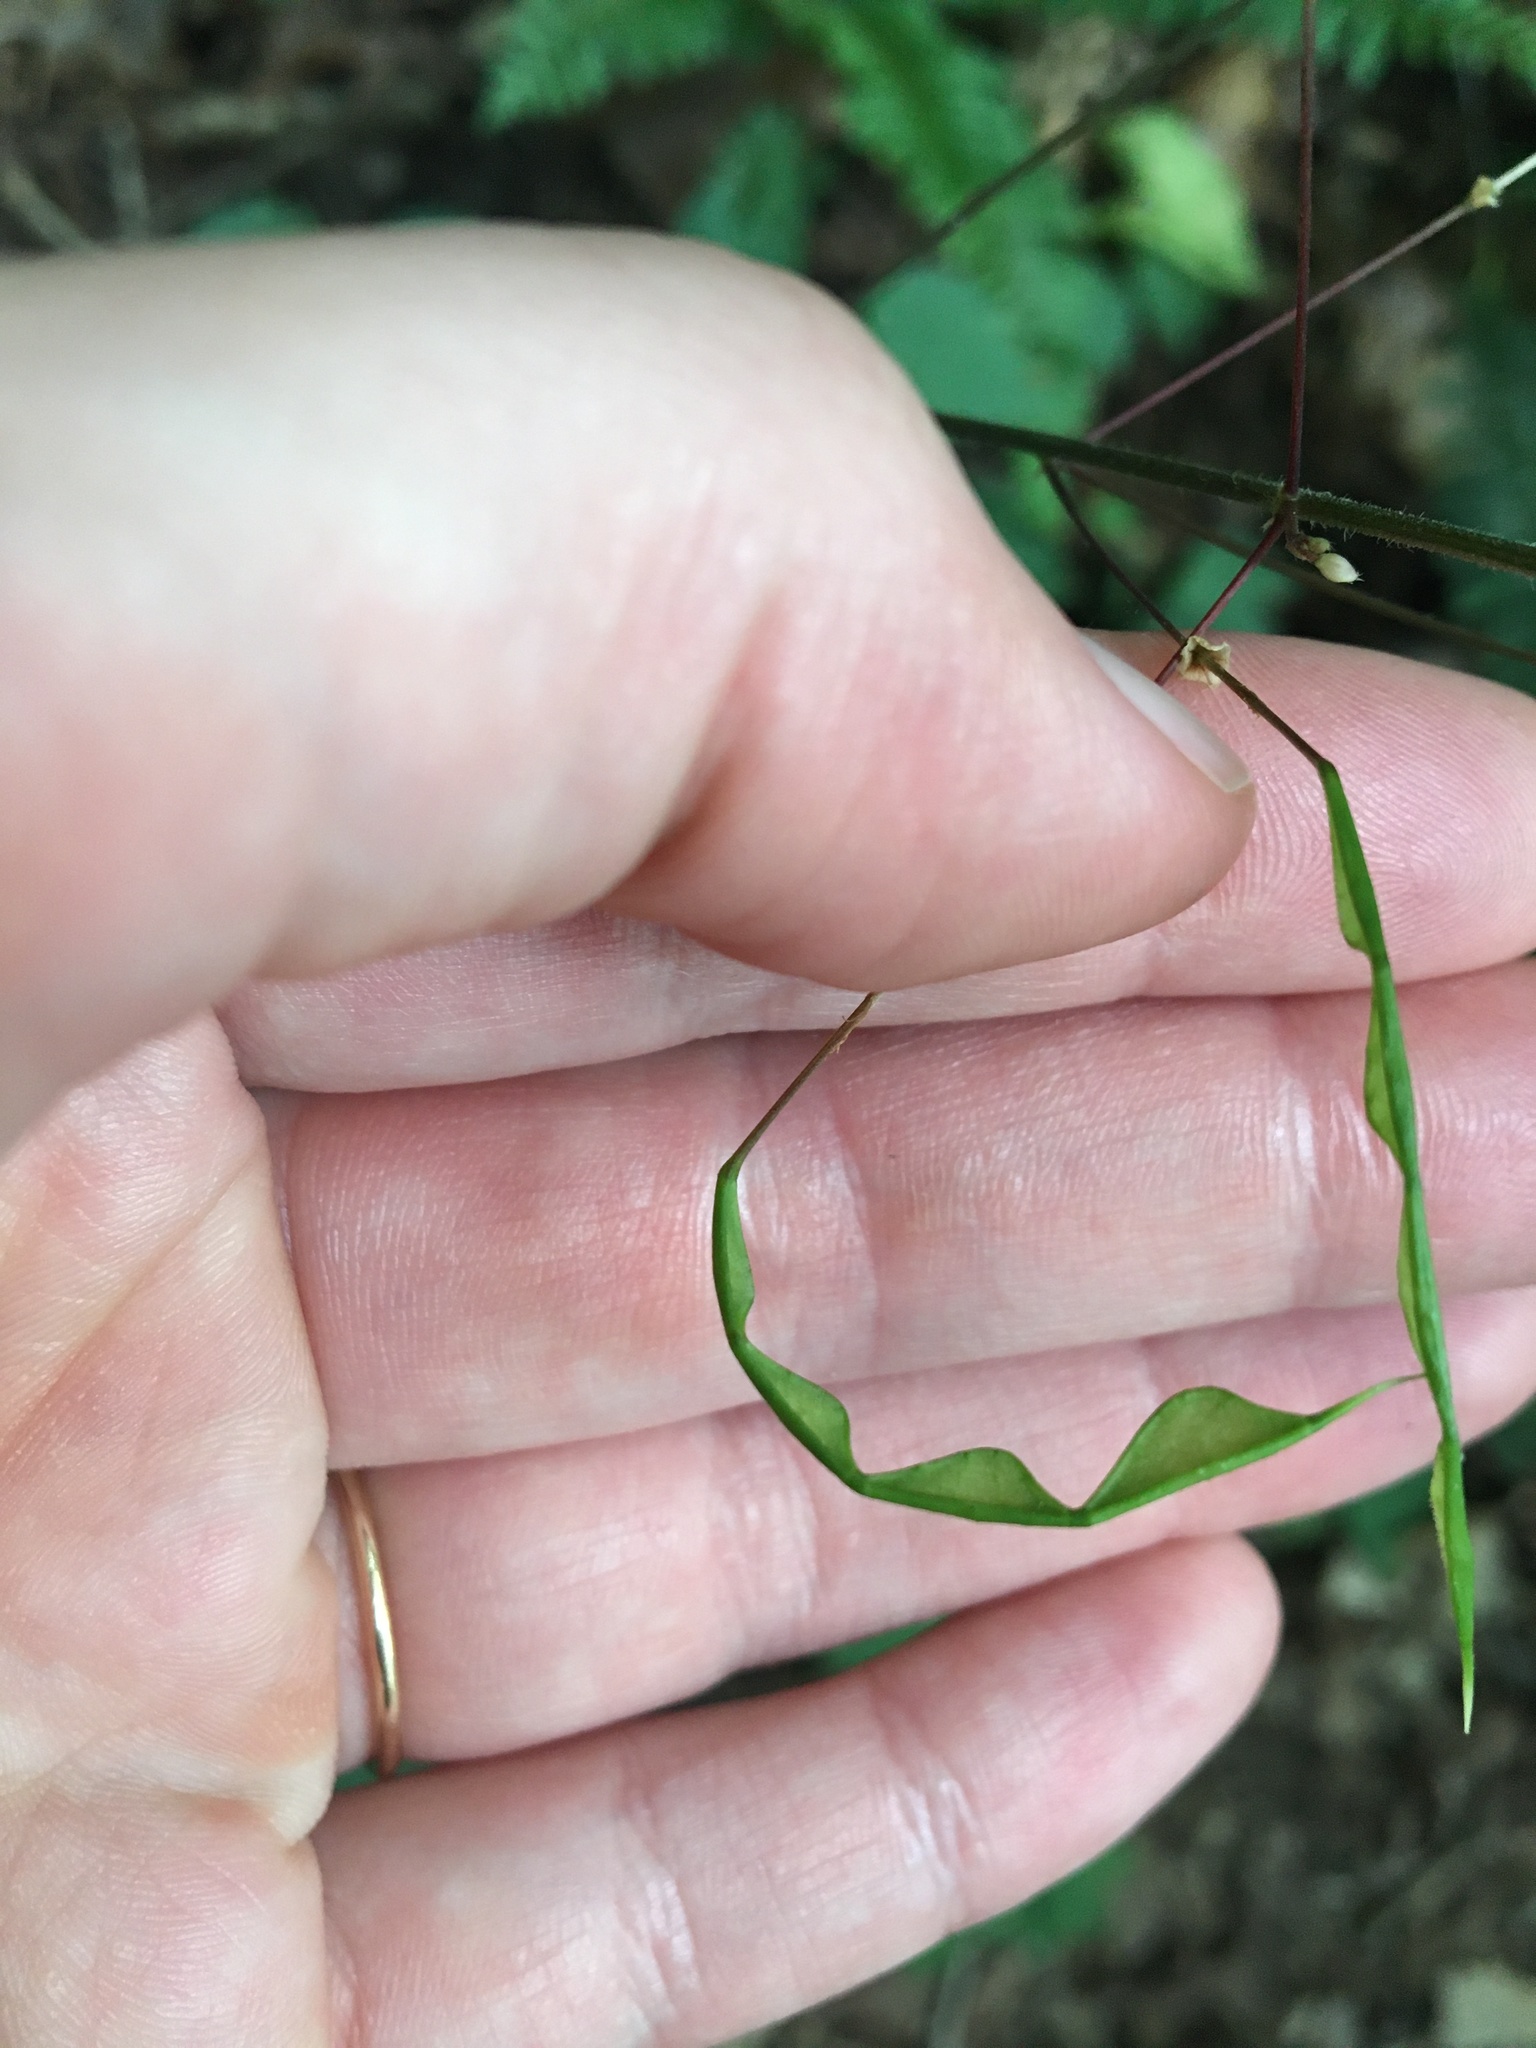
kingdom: Plantae
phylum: Tracheophyta
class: Magnoliopsida
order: Fabales
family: Fabaceae
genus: Hylodesmum
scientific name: Hylodesmum nudiflorum
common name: Bare-stemmed tick-trefoil
